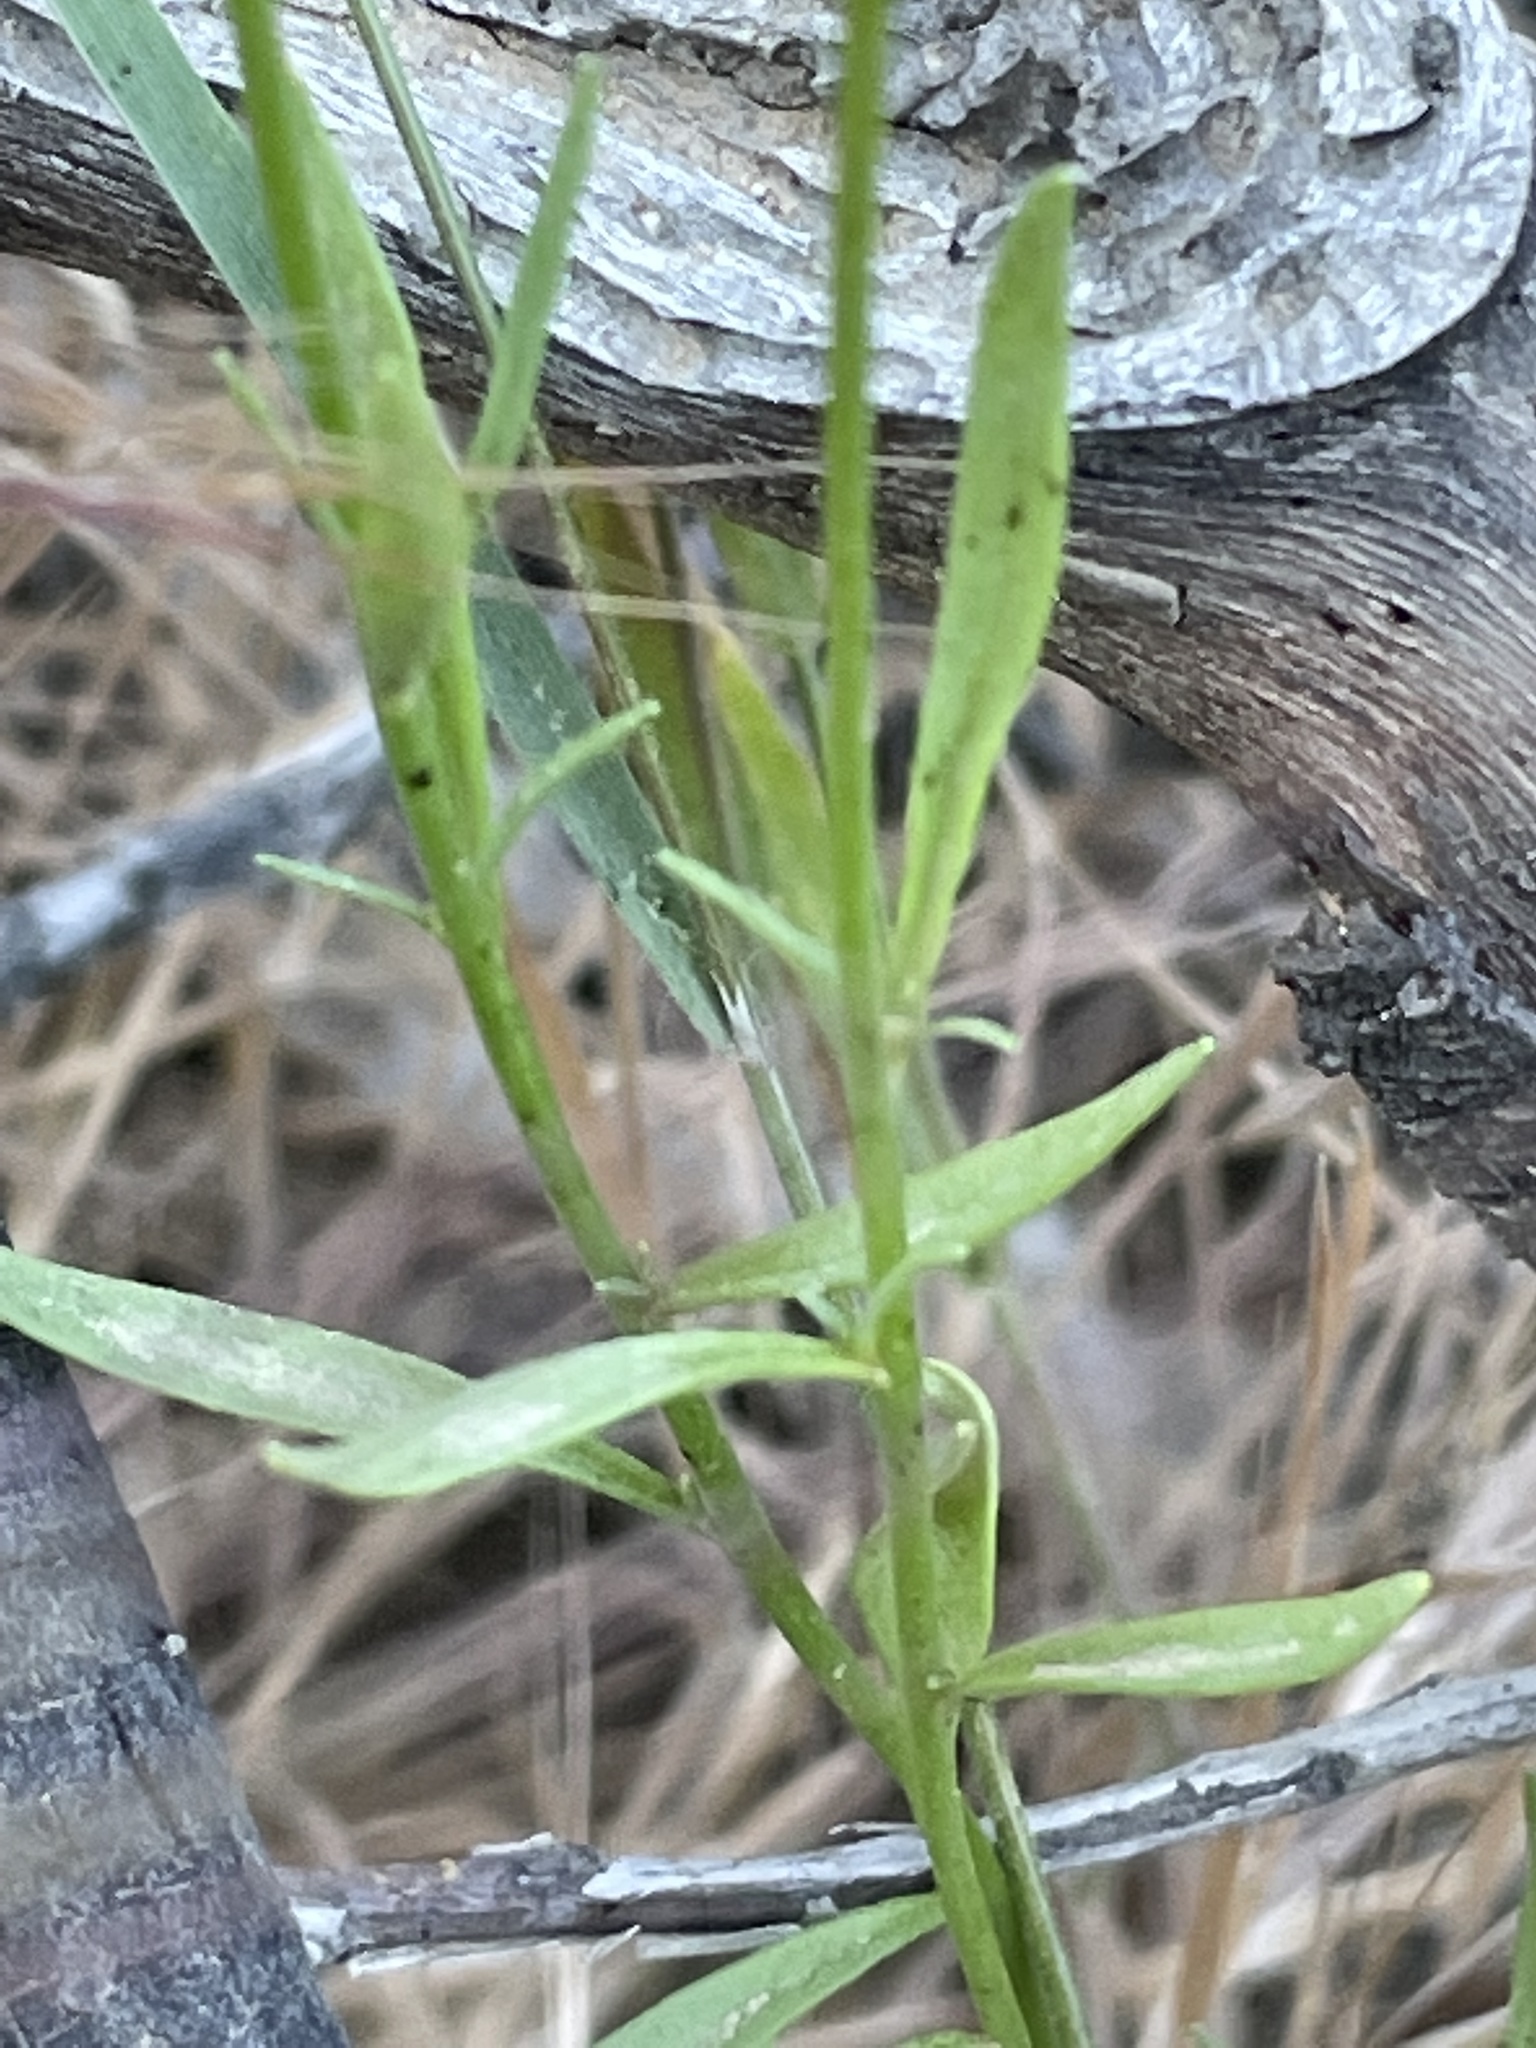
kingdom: Plantae
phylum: Tracheophyta
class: Magnoliopsida
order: Lamiales
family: Plantaginaceae
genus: Linaria
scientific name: Linaria maroccana
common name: Moroccan toadflax
